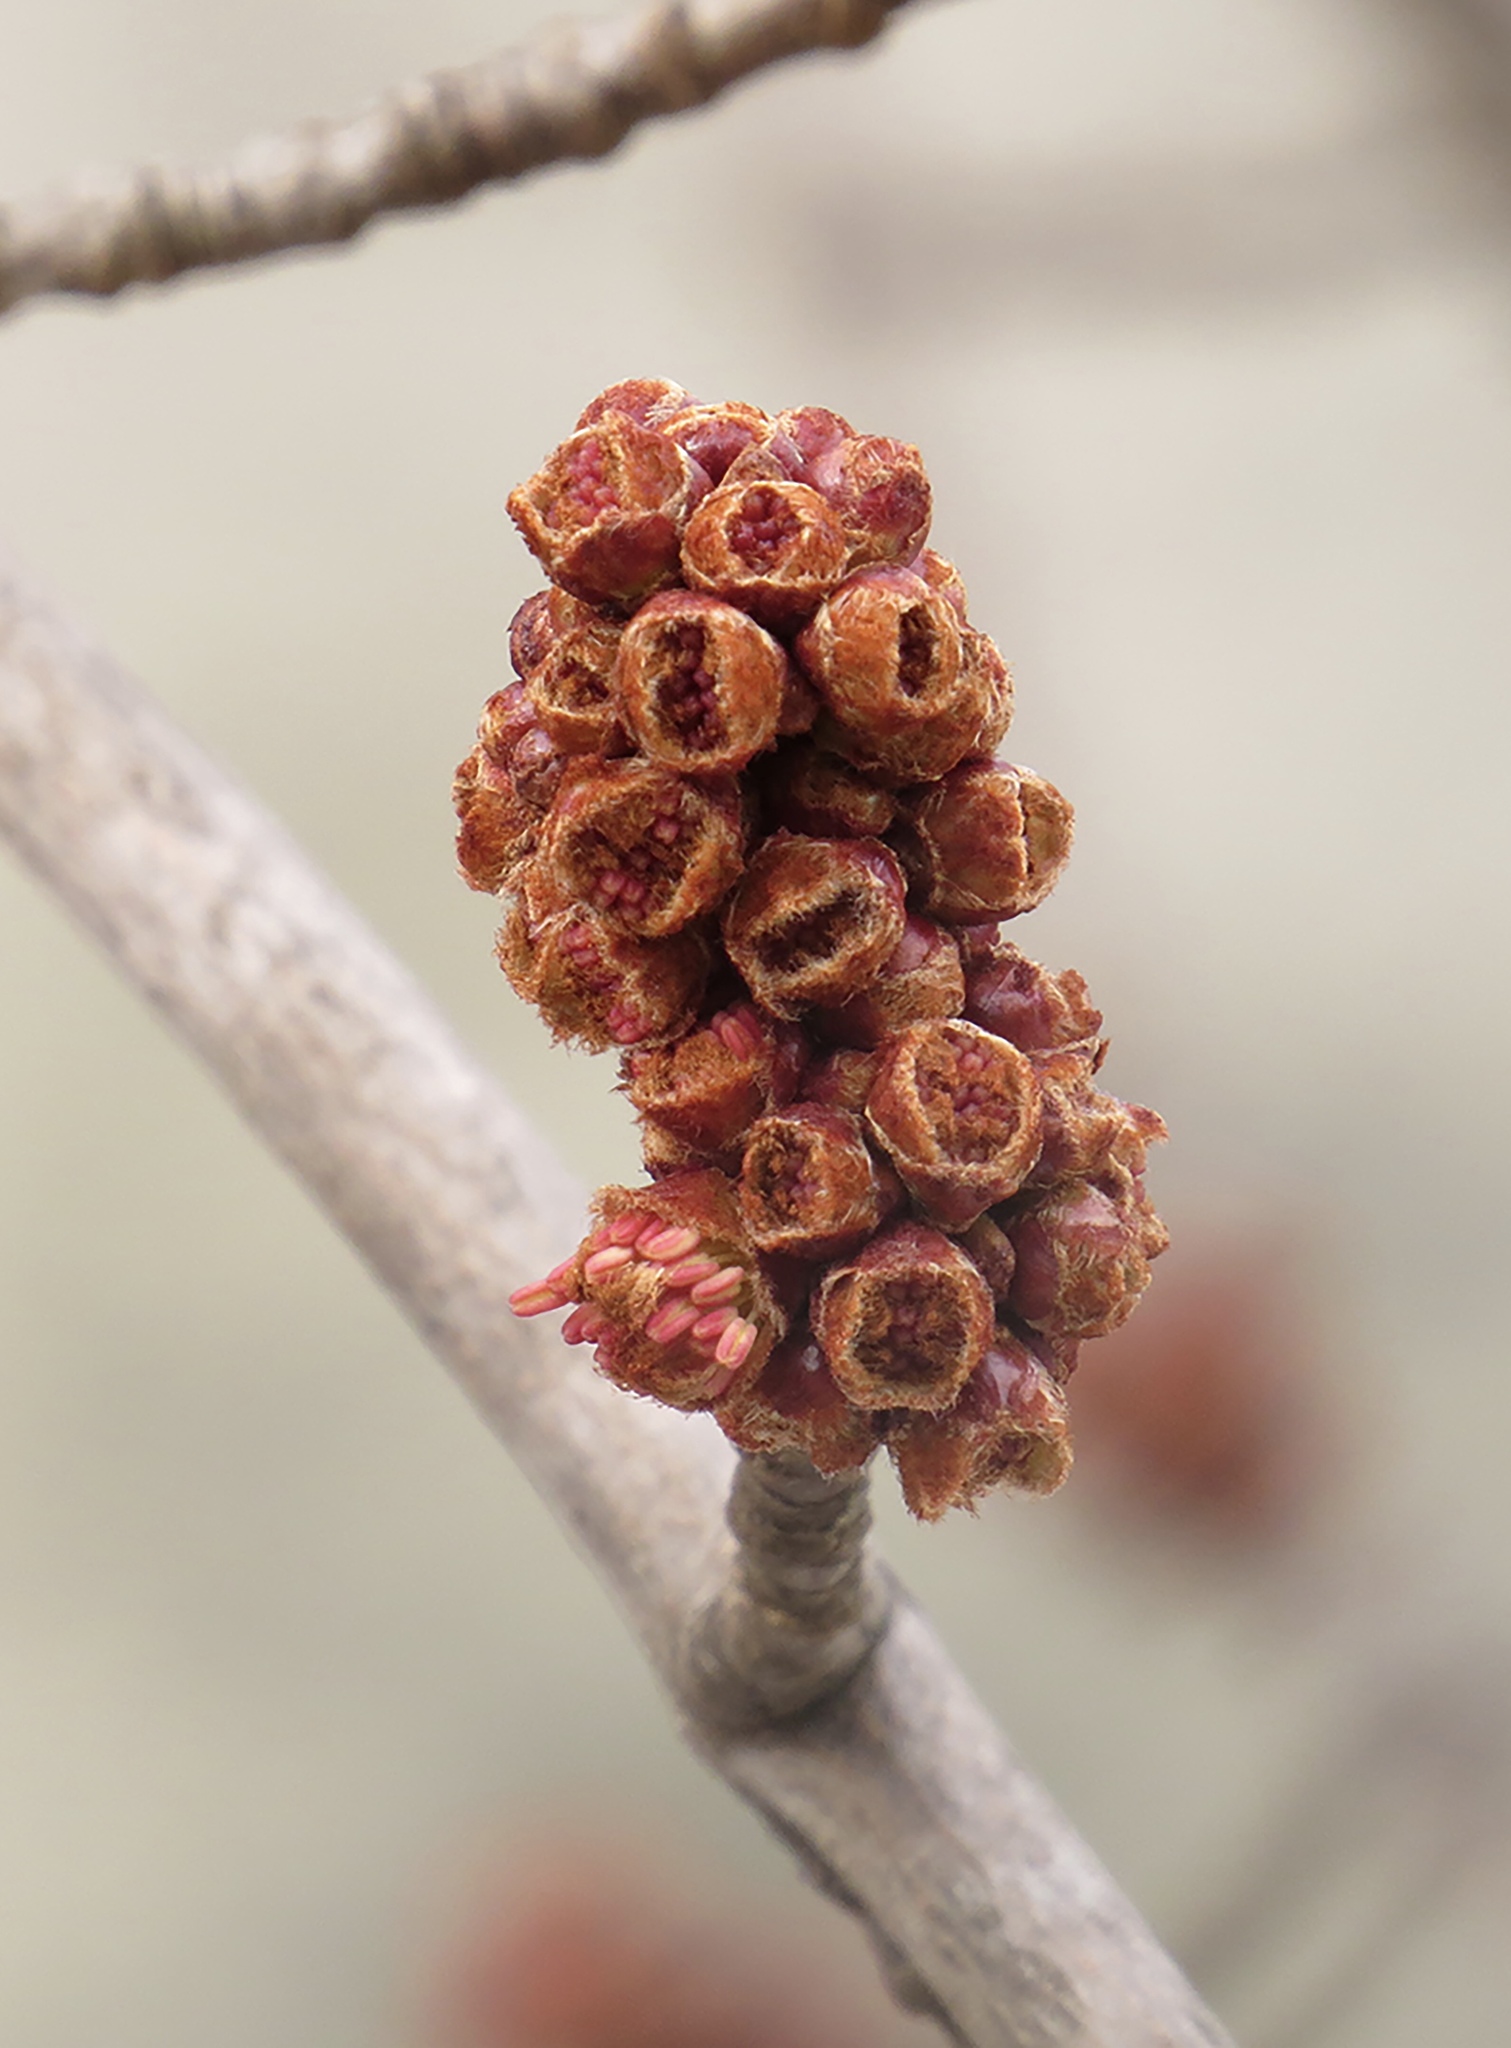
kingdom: Plantae
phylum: Tracheophyta
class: Magnoliopsida
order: Sapindales
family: Sapindaceae
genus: Acer
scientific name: Acer saccharinum
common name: Silver maple
